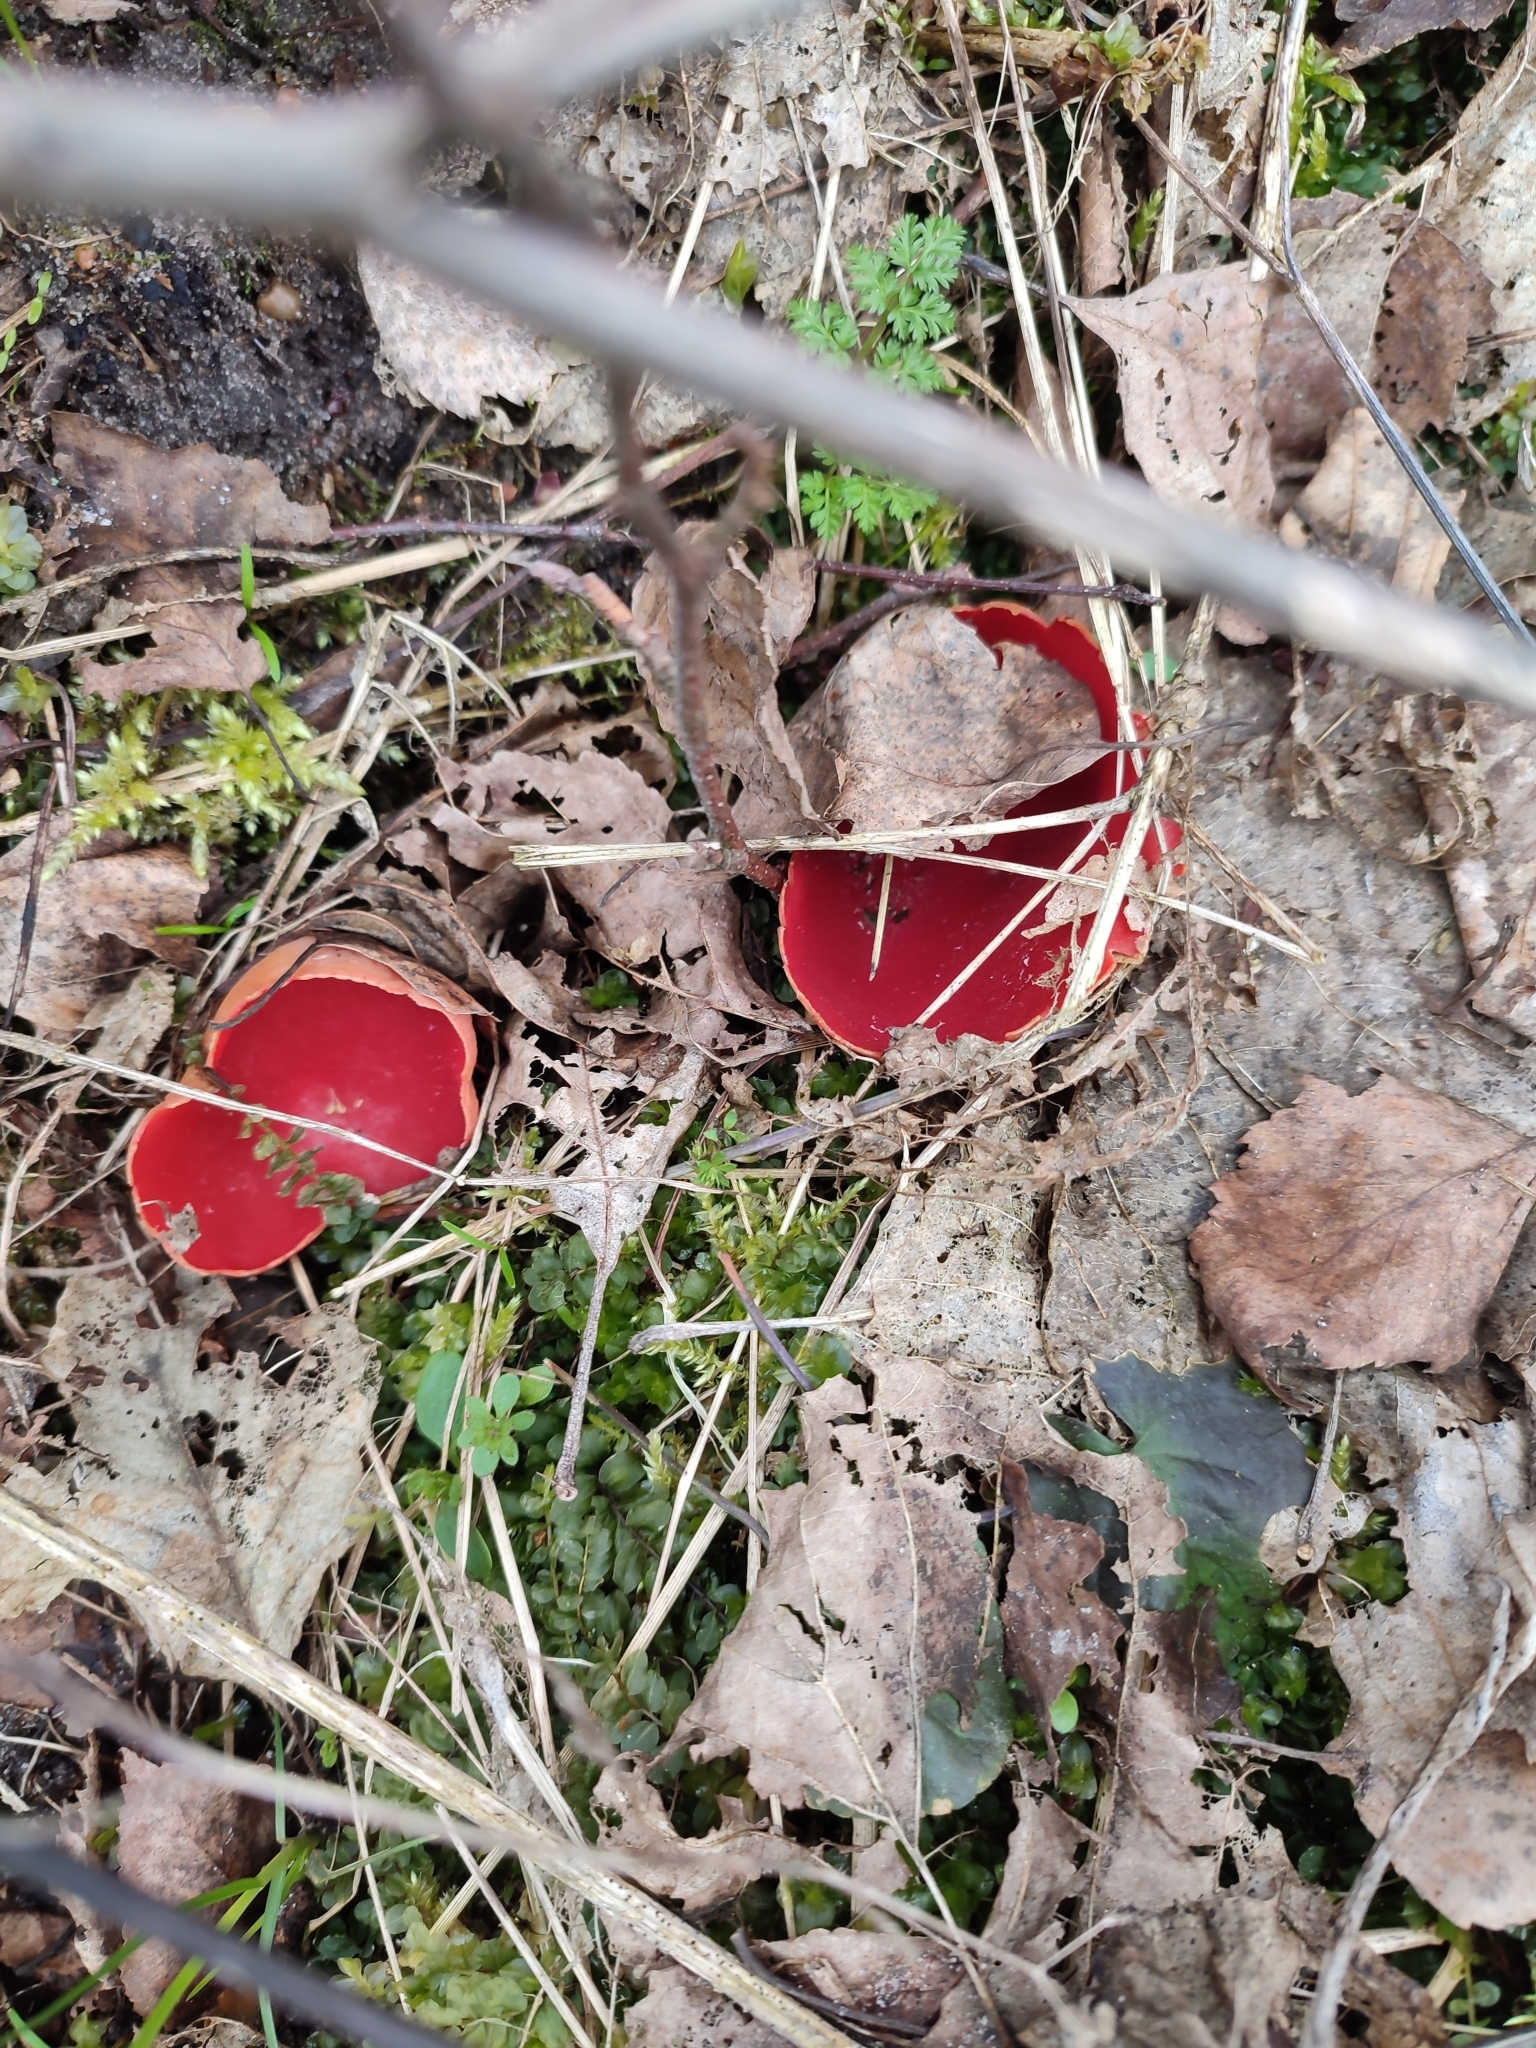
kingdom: Fungi
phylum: Ascomycota
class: Pezizomycetes
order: Pezizales
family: Sarcoscyphaceae
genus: Sarcoscypha
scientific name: Sarcoscypha
